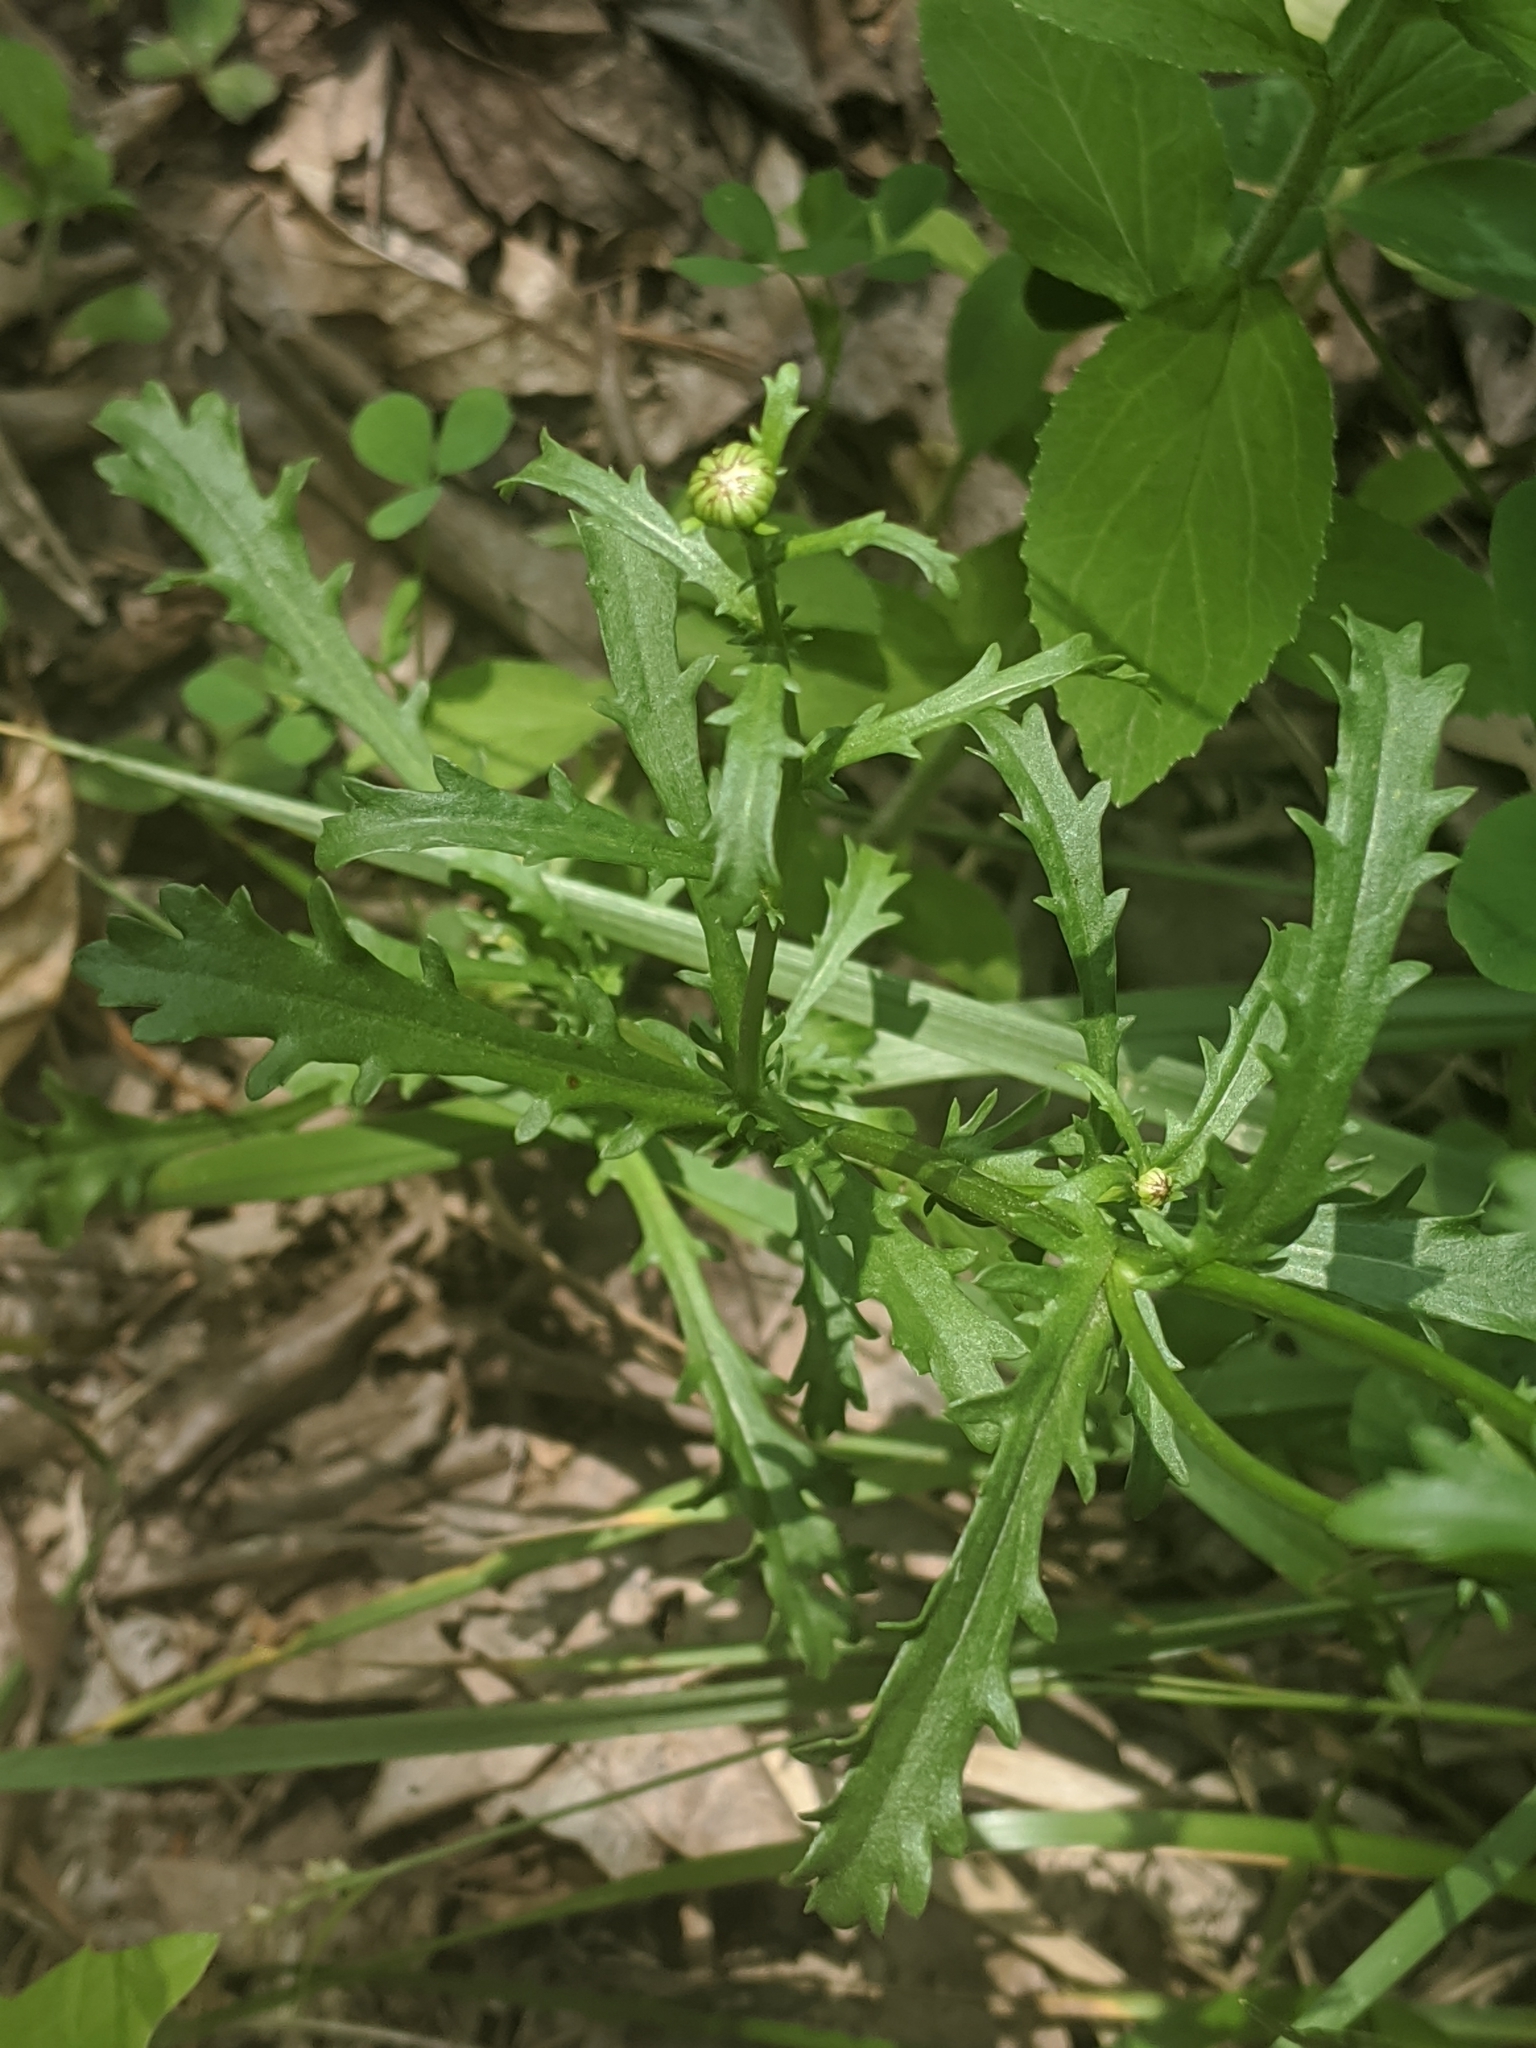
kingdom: Plantae
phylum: Tracheophyta
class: Magnoliopsida
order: Asterales
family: Asteraceae
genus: Leucanthemum
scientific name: Leucanthemum vulgare
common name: Oxeye daisy
